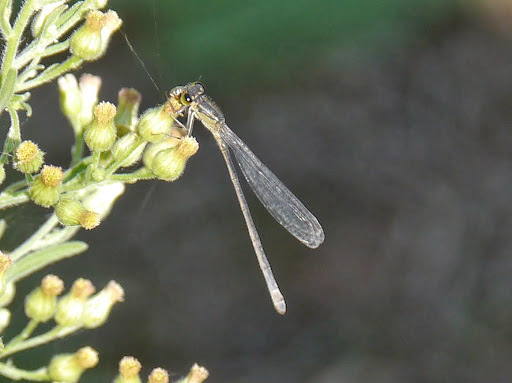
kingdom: Animalia
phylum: Arthropoda
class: Insecta
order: Odonata
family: Coenagrionidae
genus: Ischnura
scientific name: Ischnura elegans
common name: Blue-tailed damselfly
